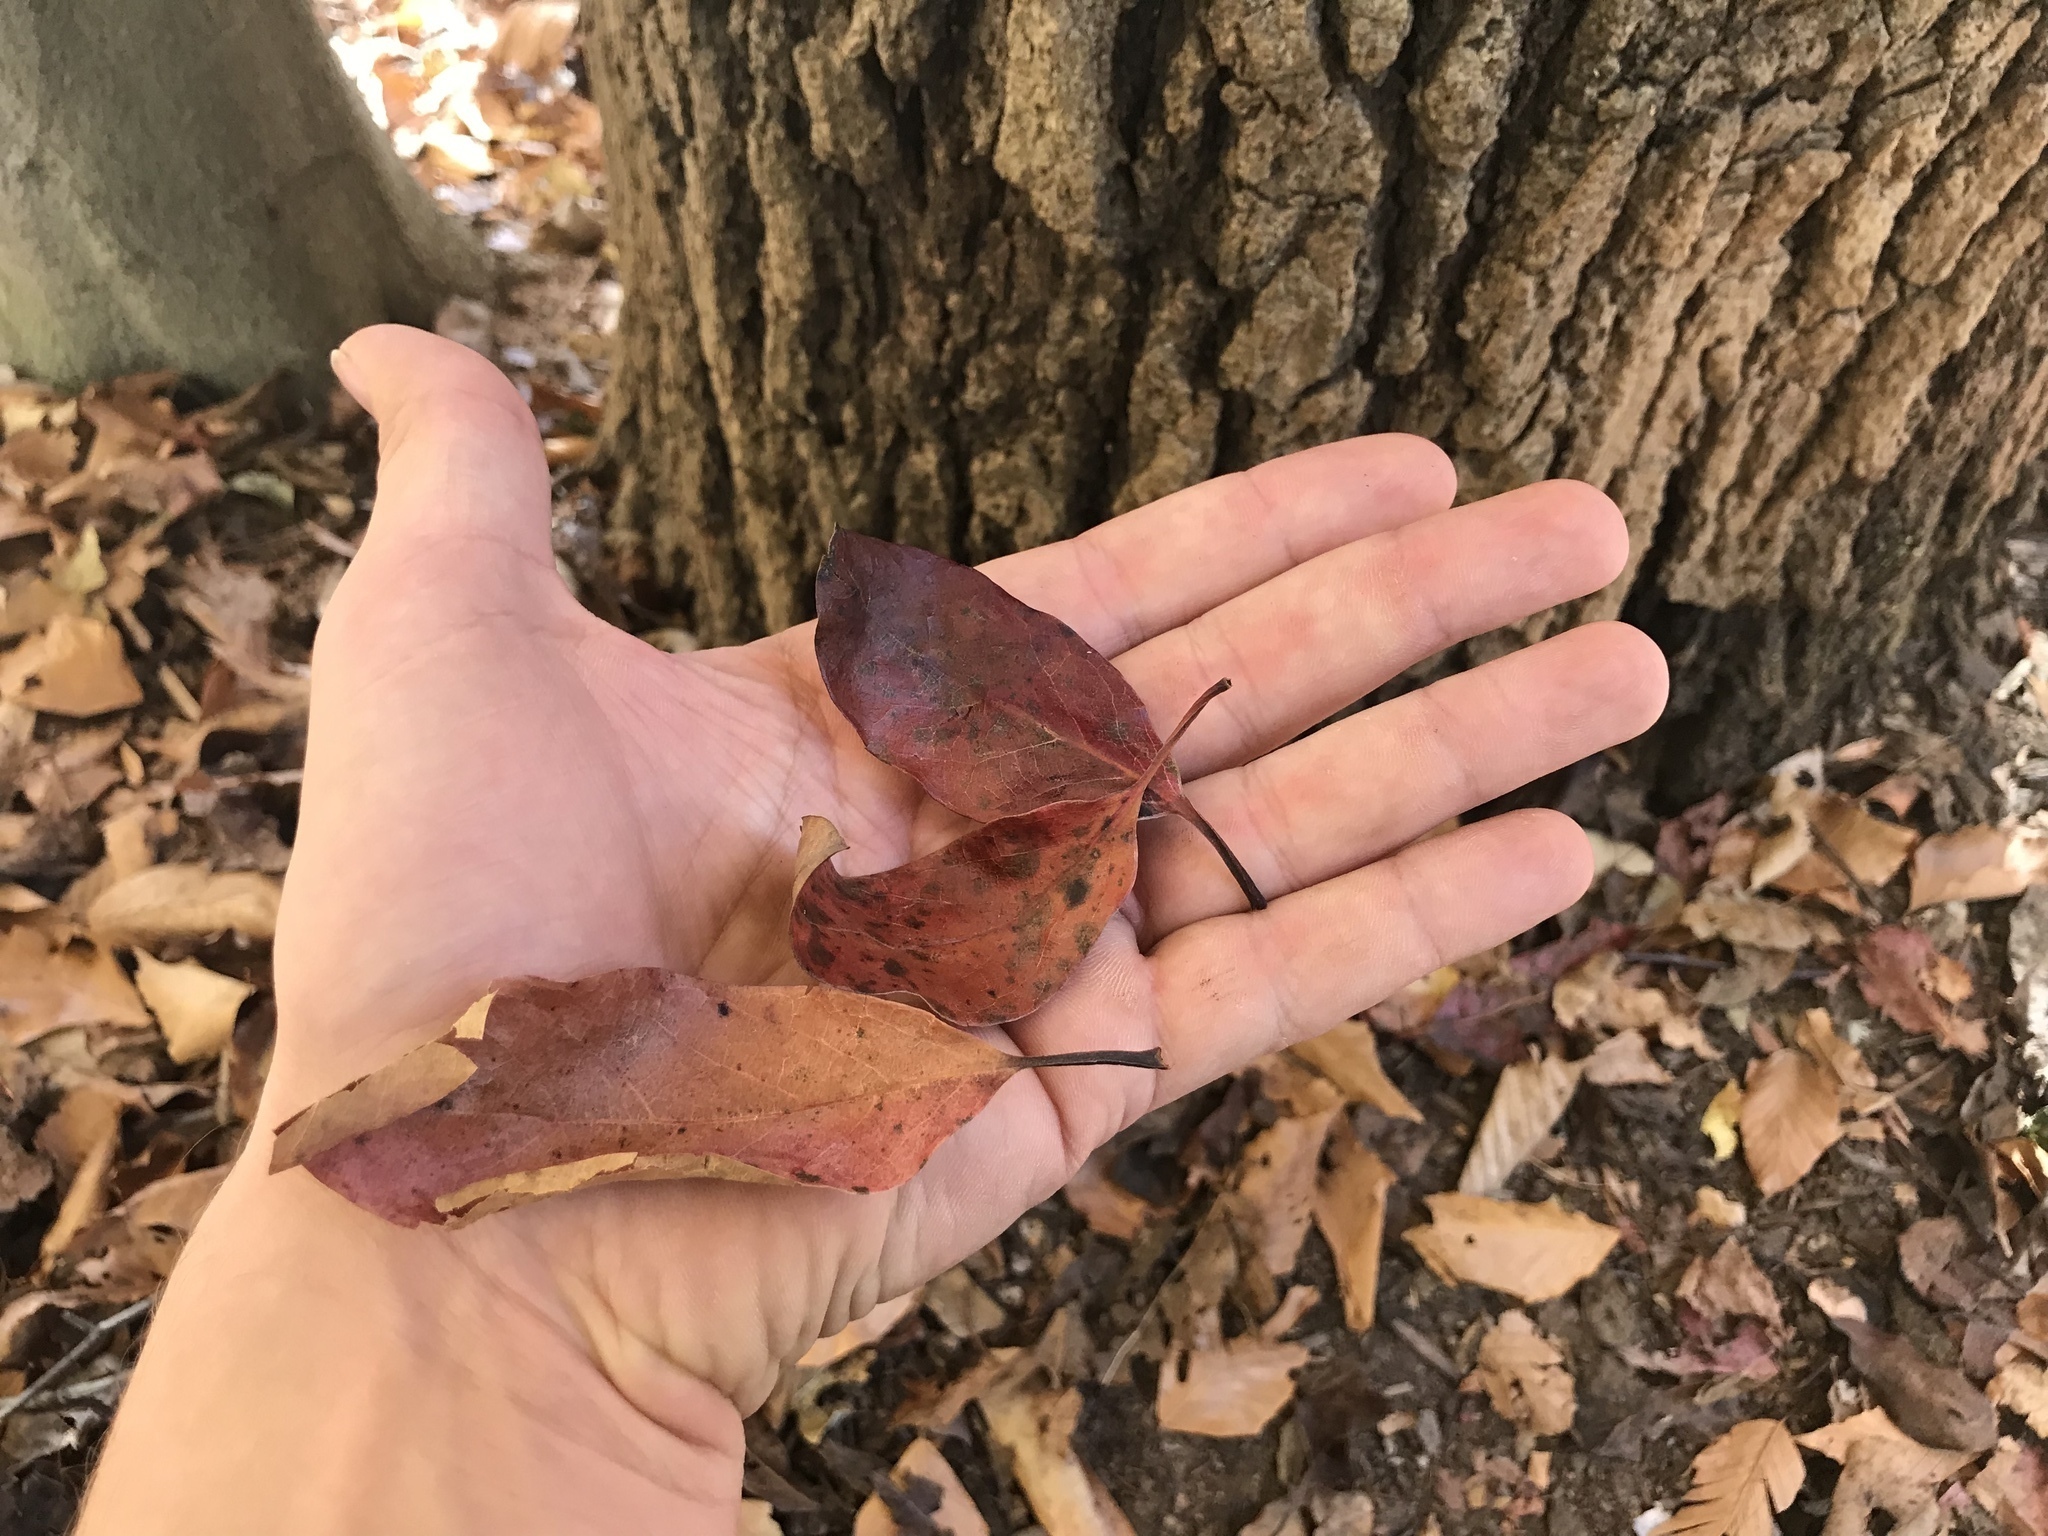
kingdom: Plantae
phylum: Tracheophyta
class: Magnoliopsida
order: Cornales
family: Nyssaceae
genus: Nyssa
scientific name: Nyssa sylvatica
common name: Black tupelo
